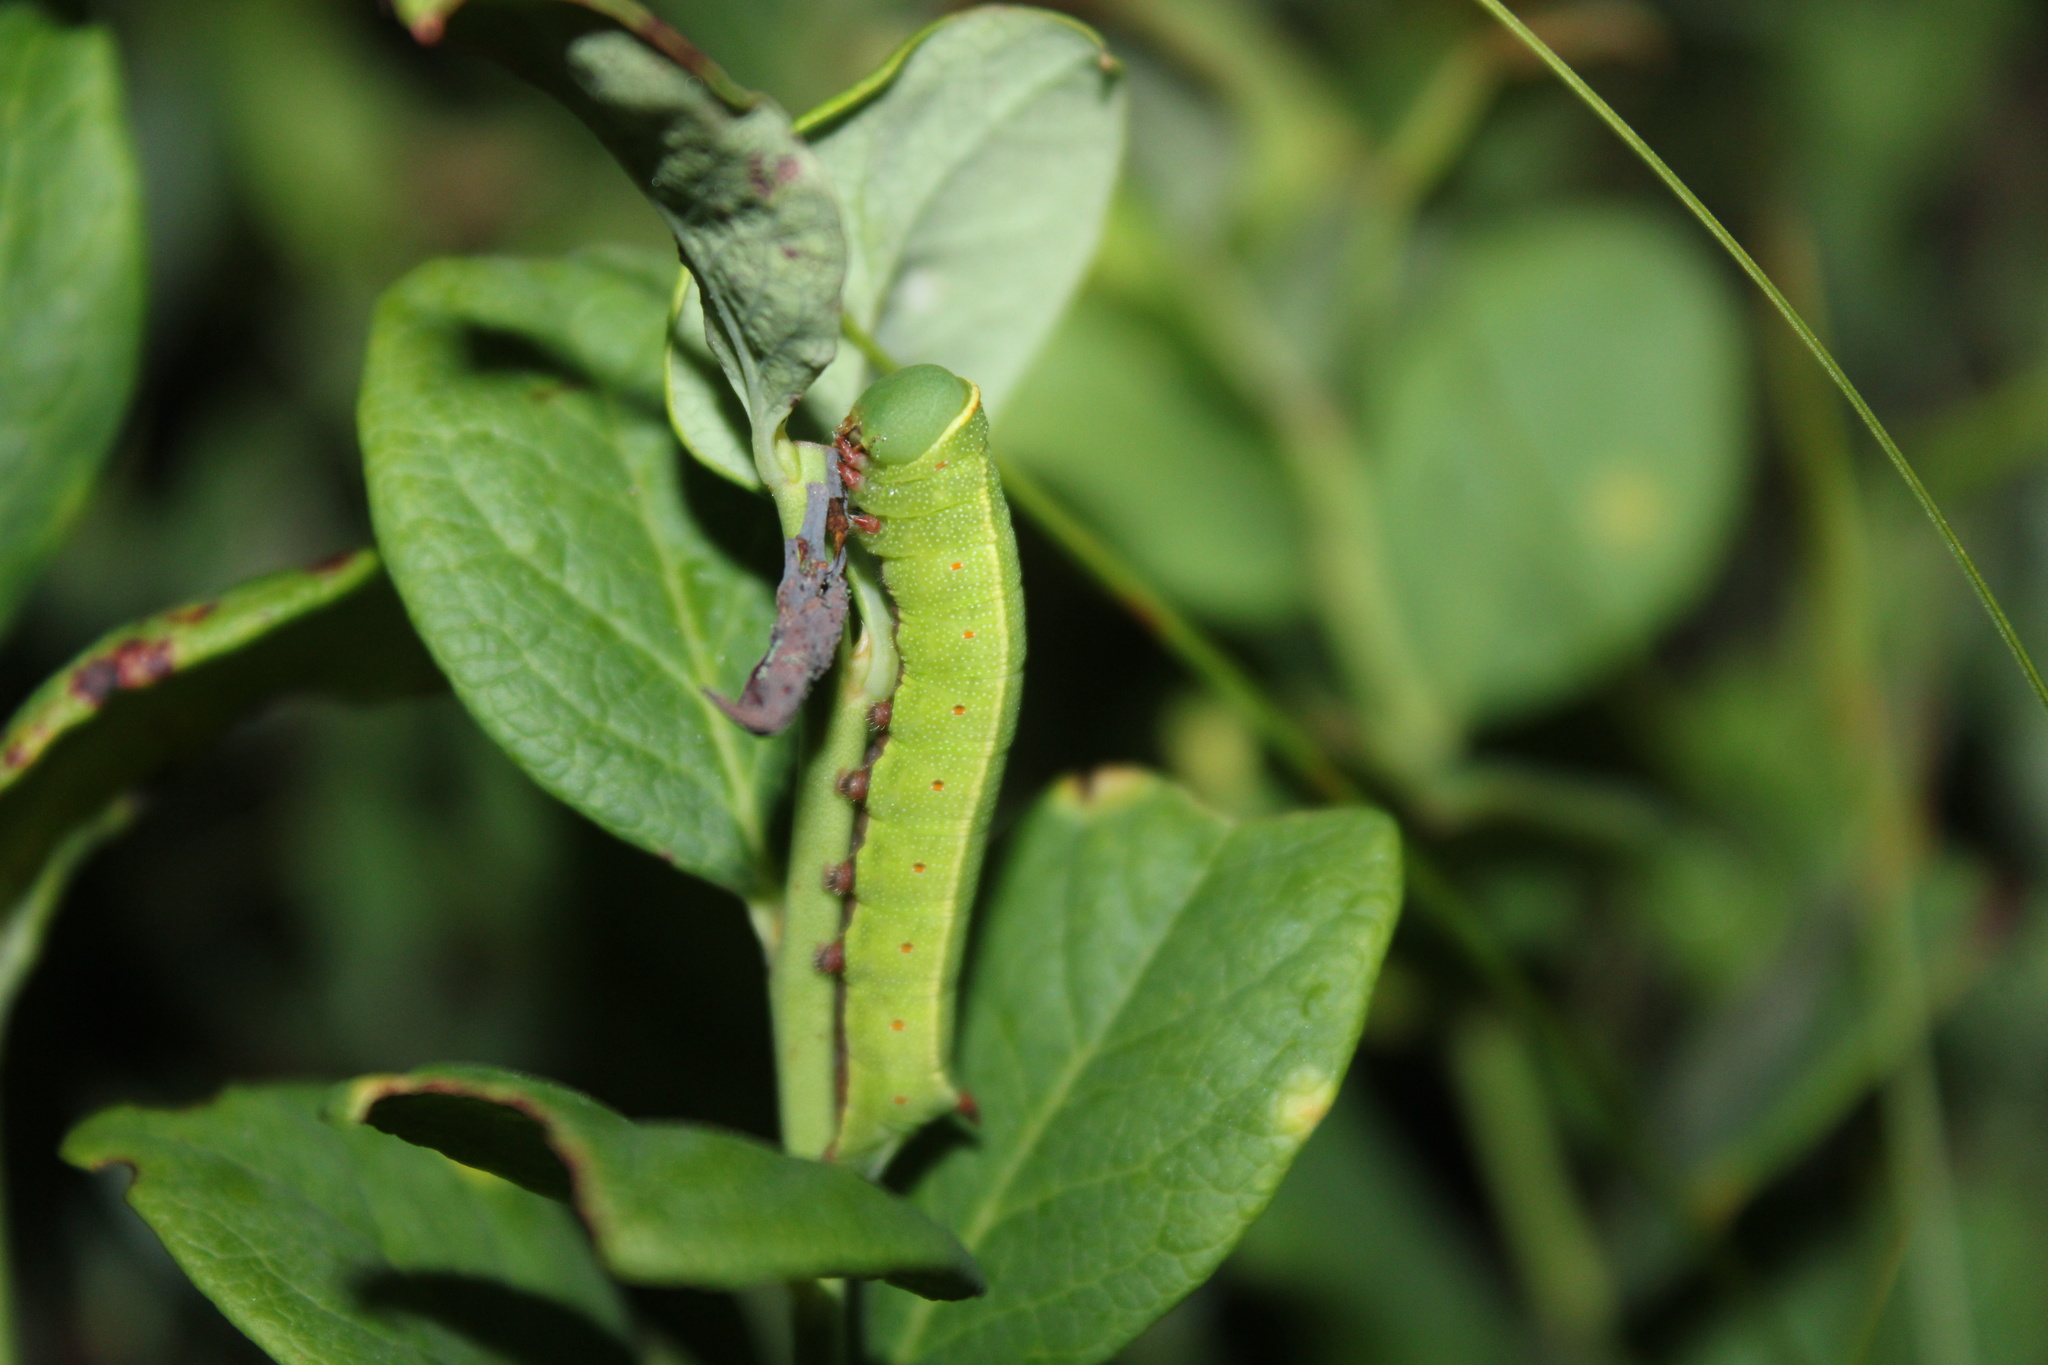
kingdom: Animalia
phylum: Arthropoda
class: Insecta
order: Lepidoptera
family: Sphingidae
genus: Hemaris
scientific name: Hemaris gracilis
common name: Graceful clearwing
